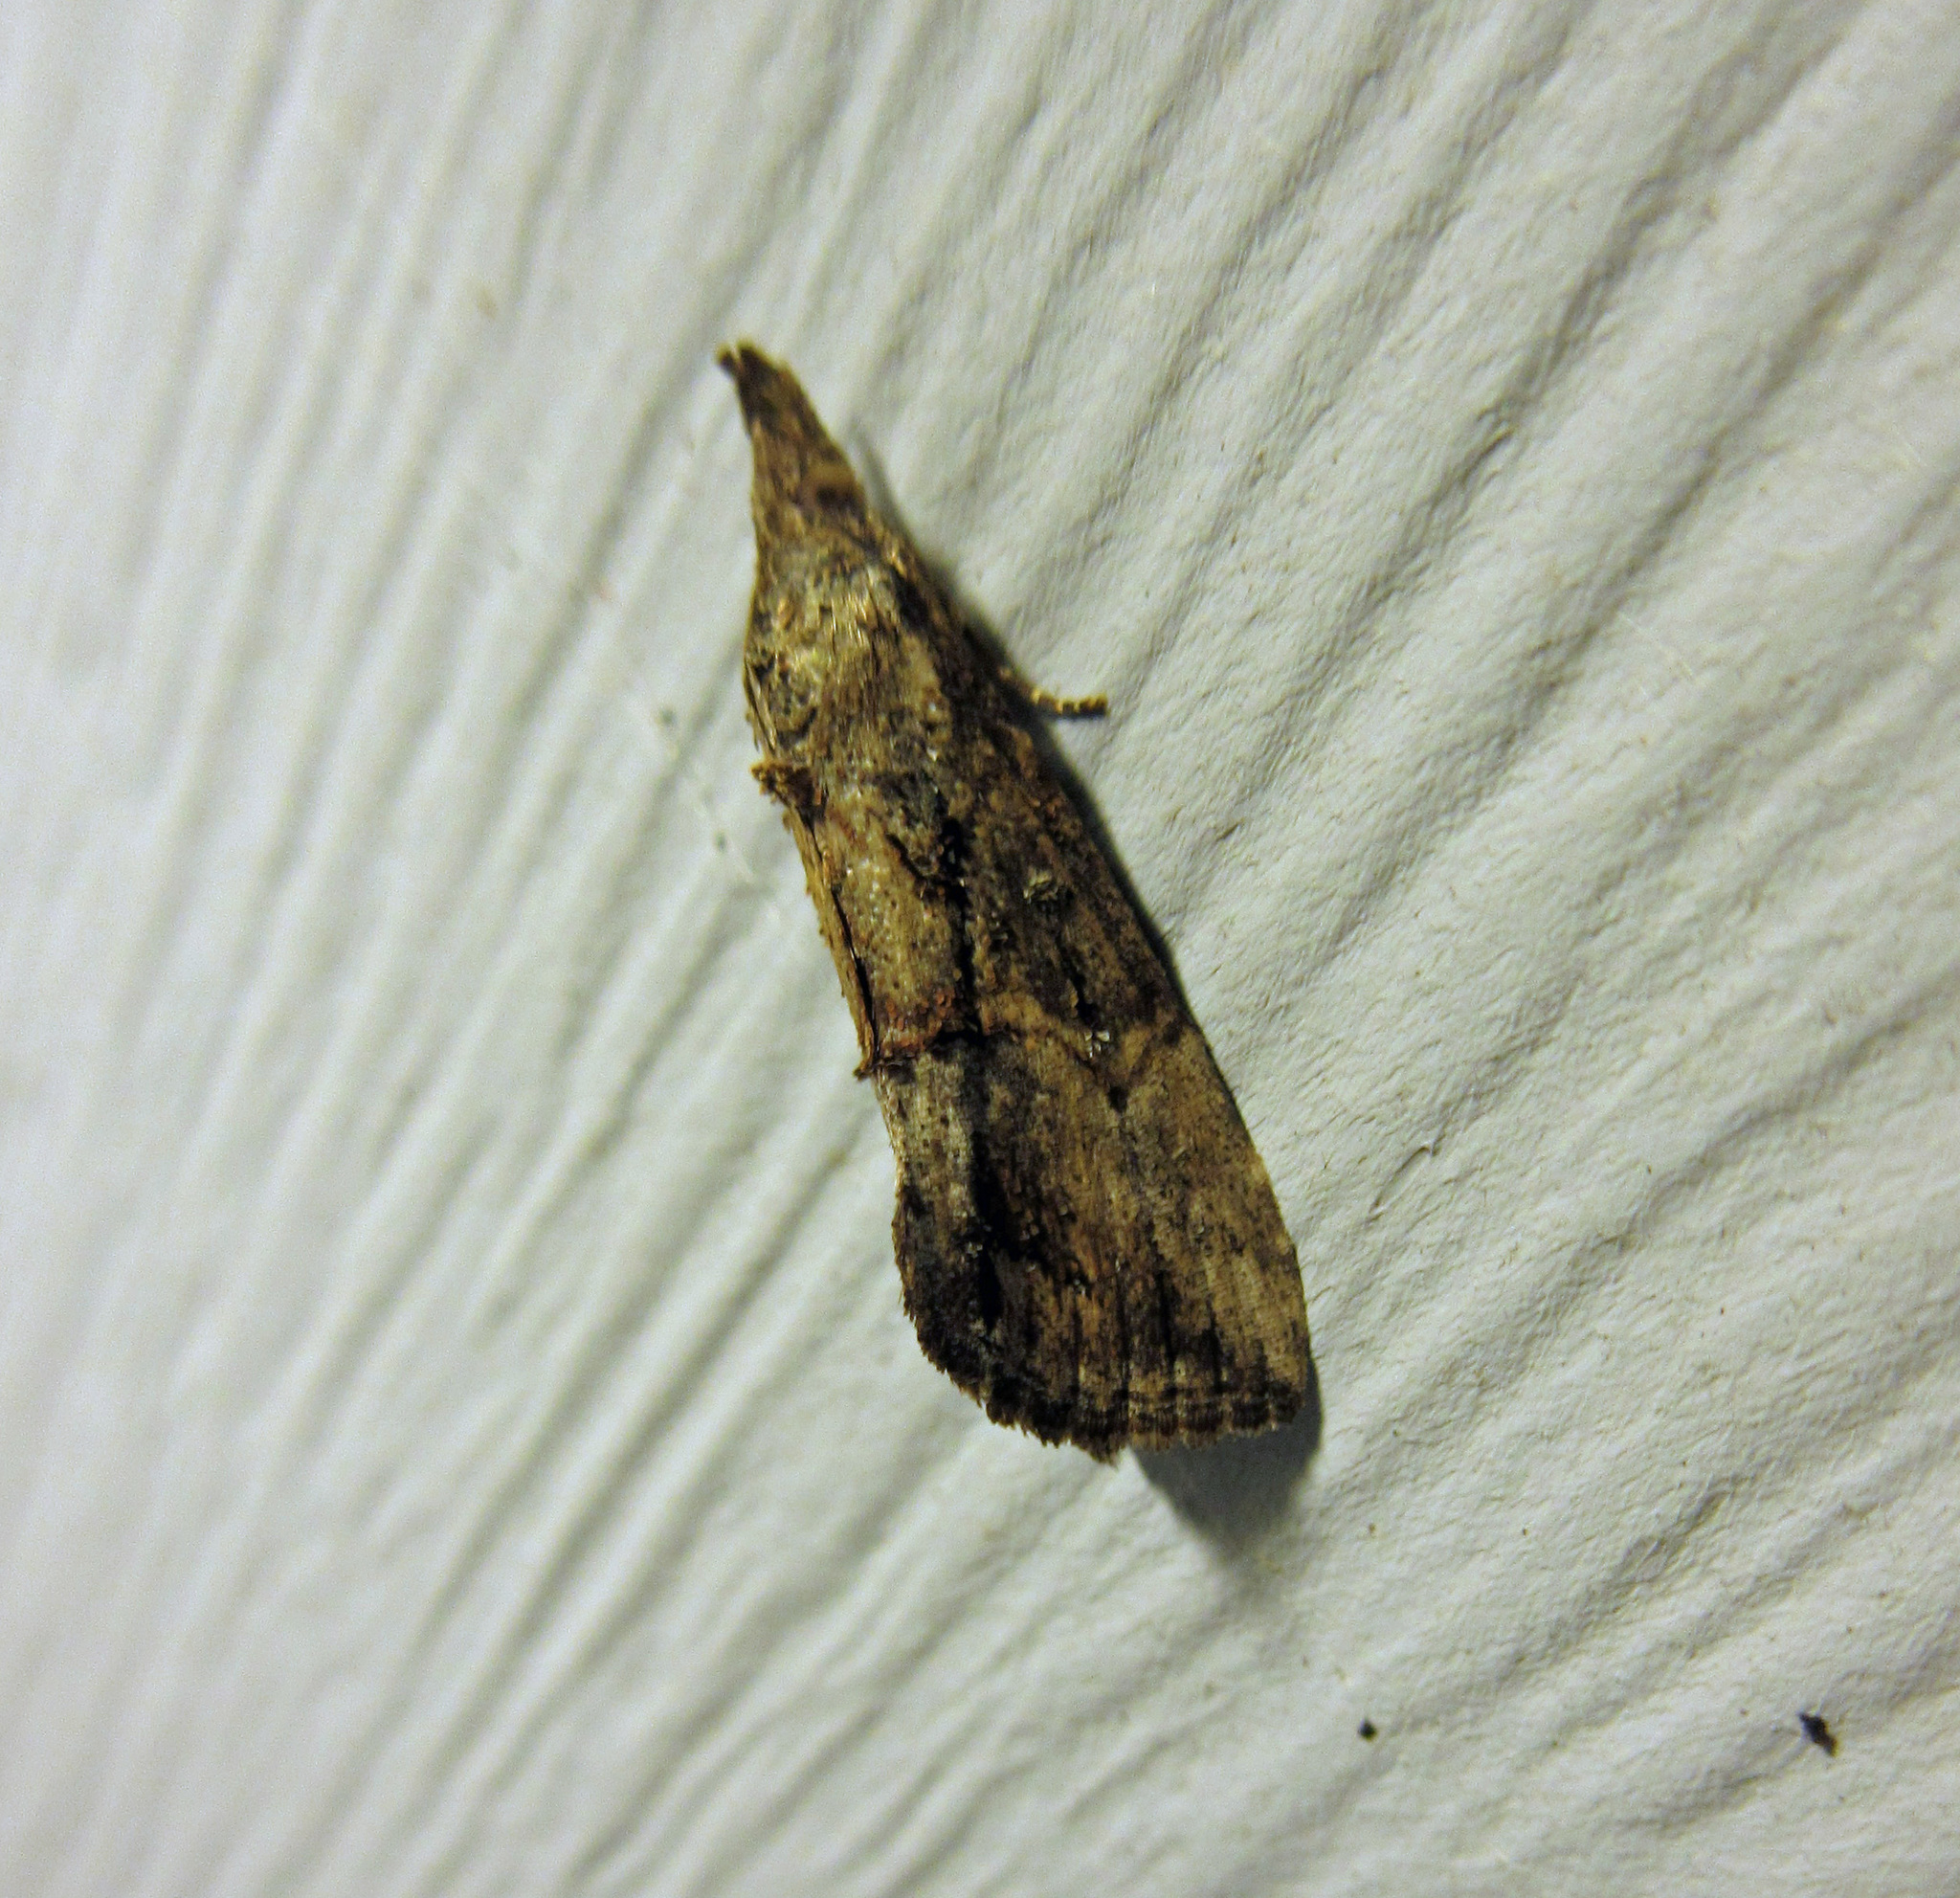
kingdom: Animalia
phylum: Arthropoda
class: Insecta
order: Lepidoptera
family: Erebidae
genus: Hypena
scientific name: Hypena scabra
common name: Green cloverworm
